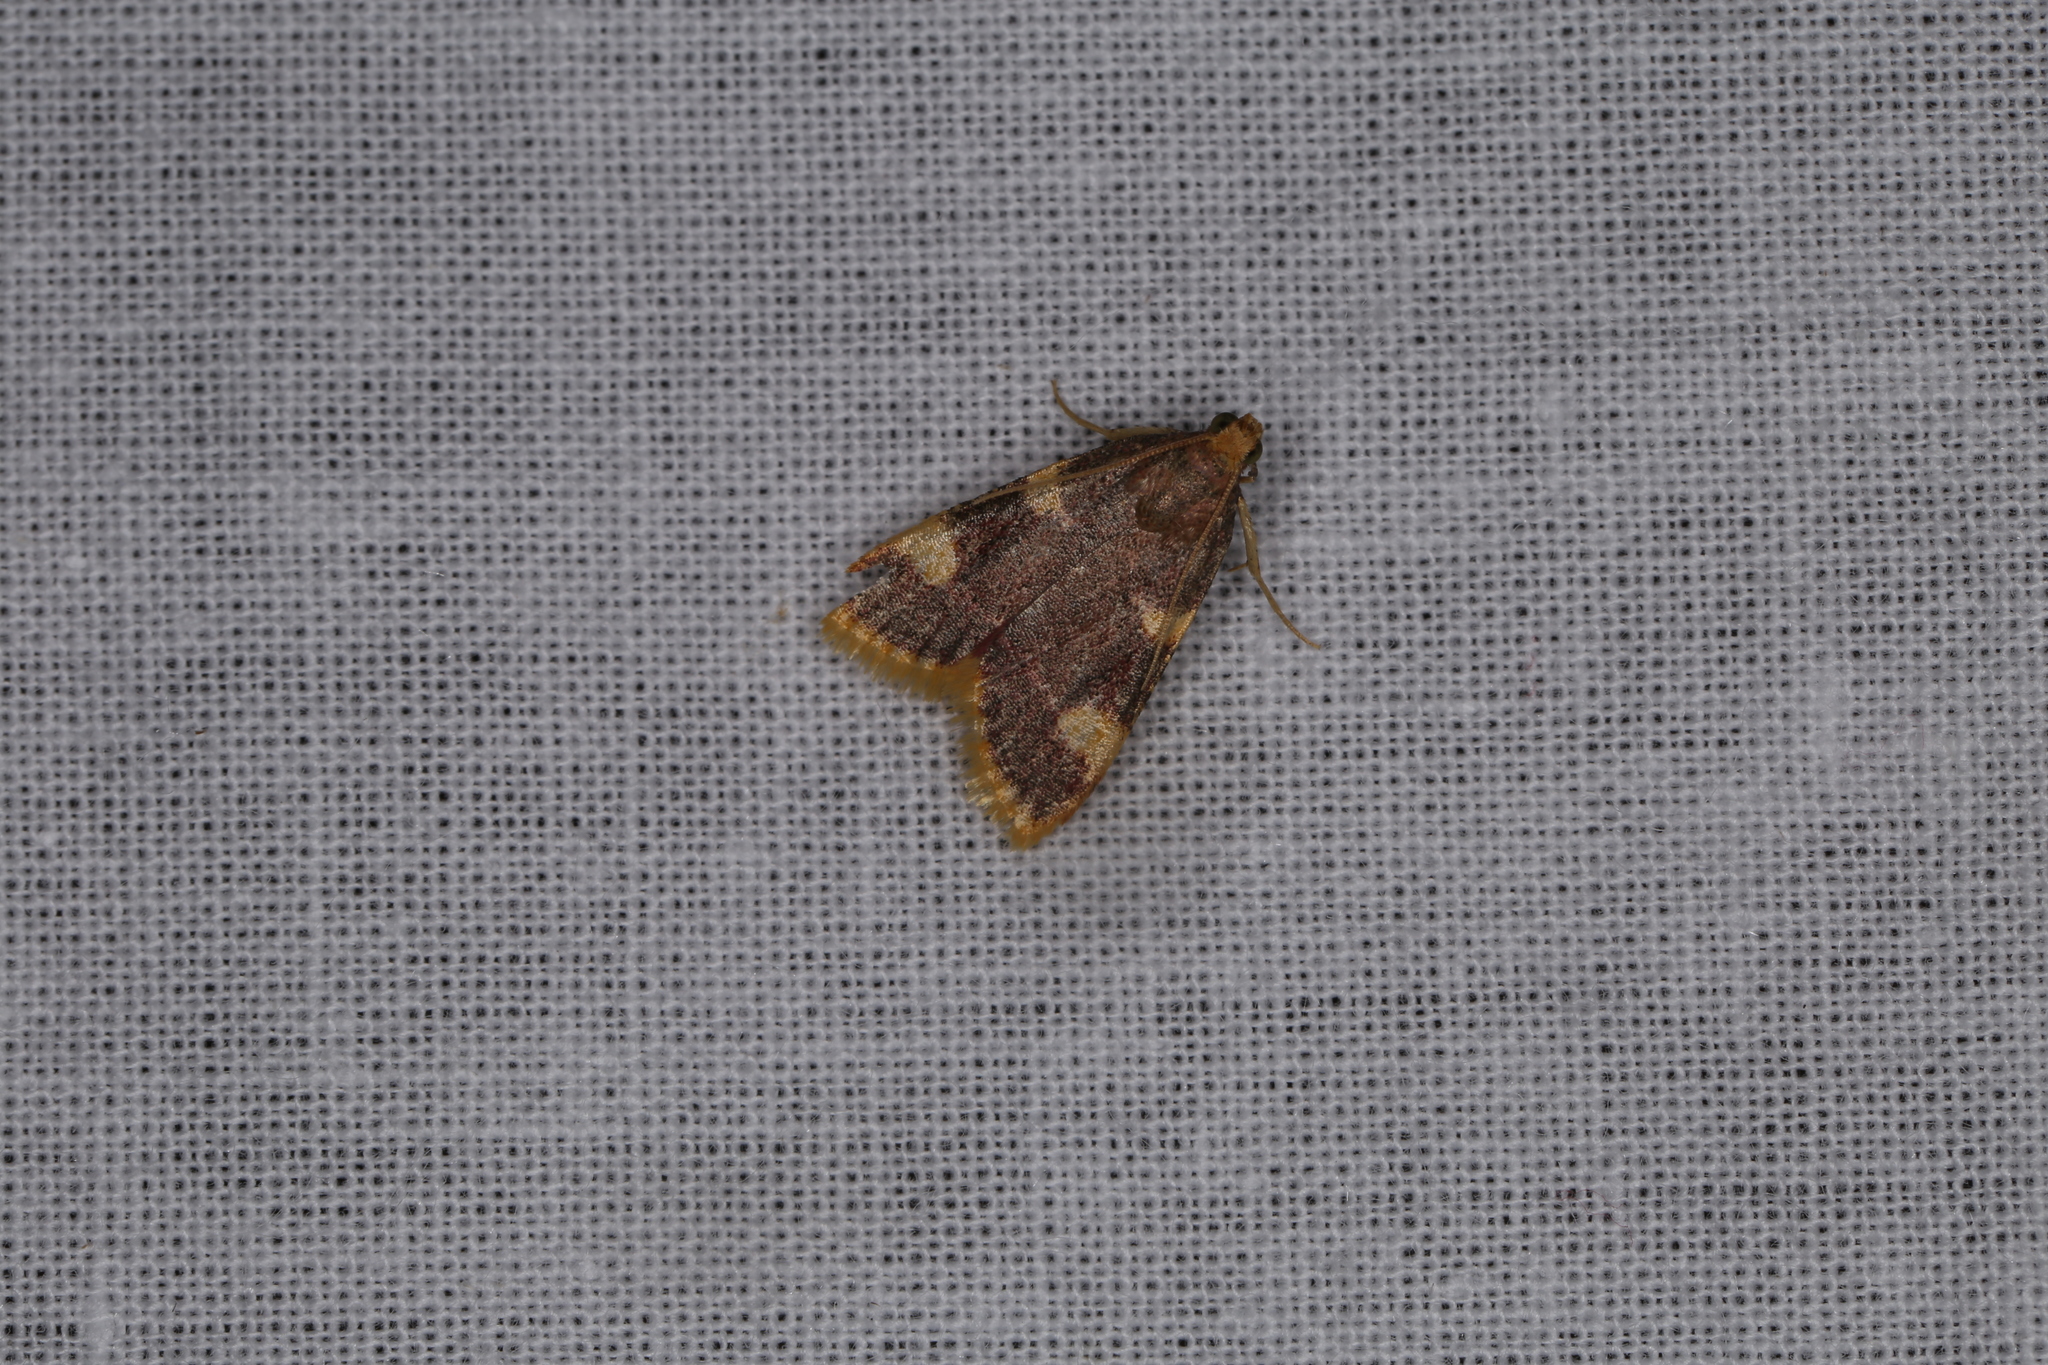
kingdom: Animalia
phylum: Arthropoda
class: Insecta
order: Lepidoptera
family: Pyralidae
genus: Hypsopygia
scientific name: Hypsopygia costalis
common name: Gold triangle
